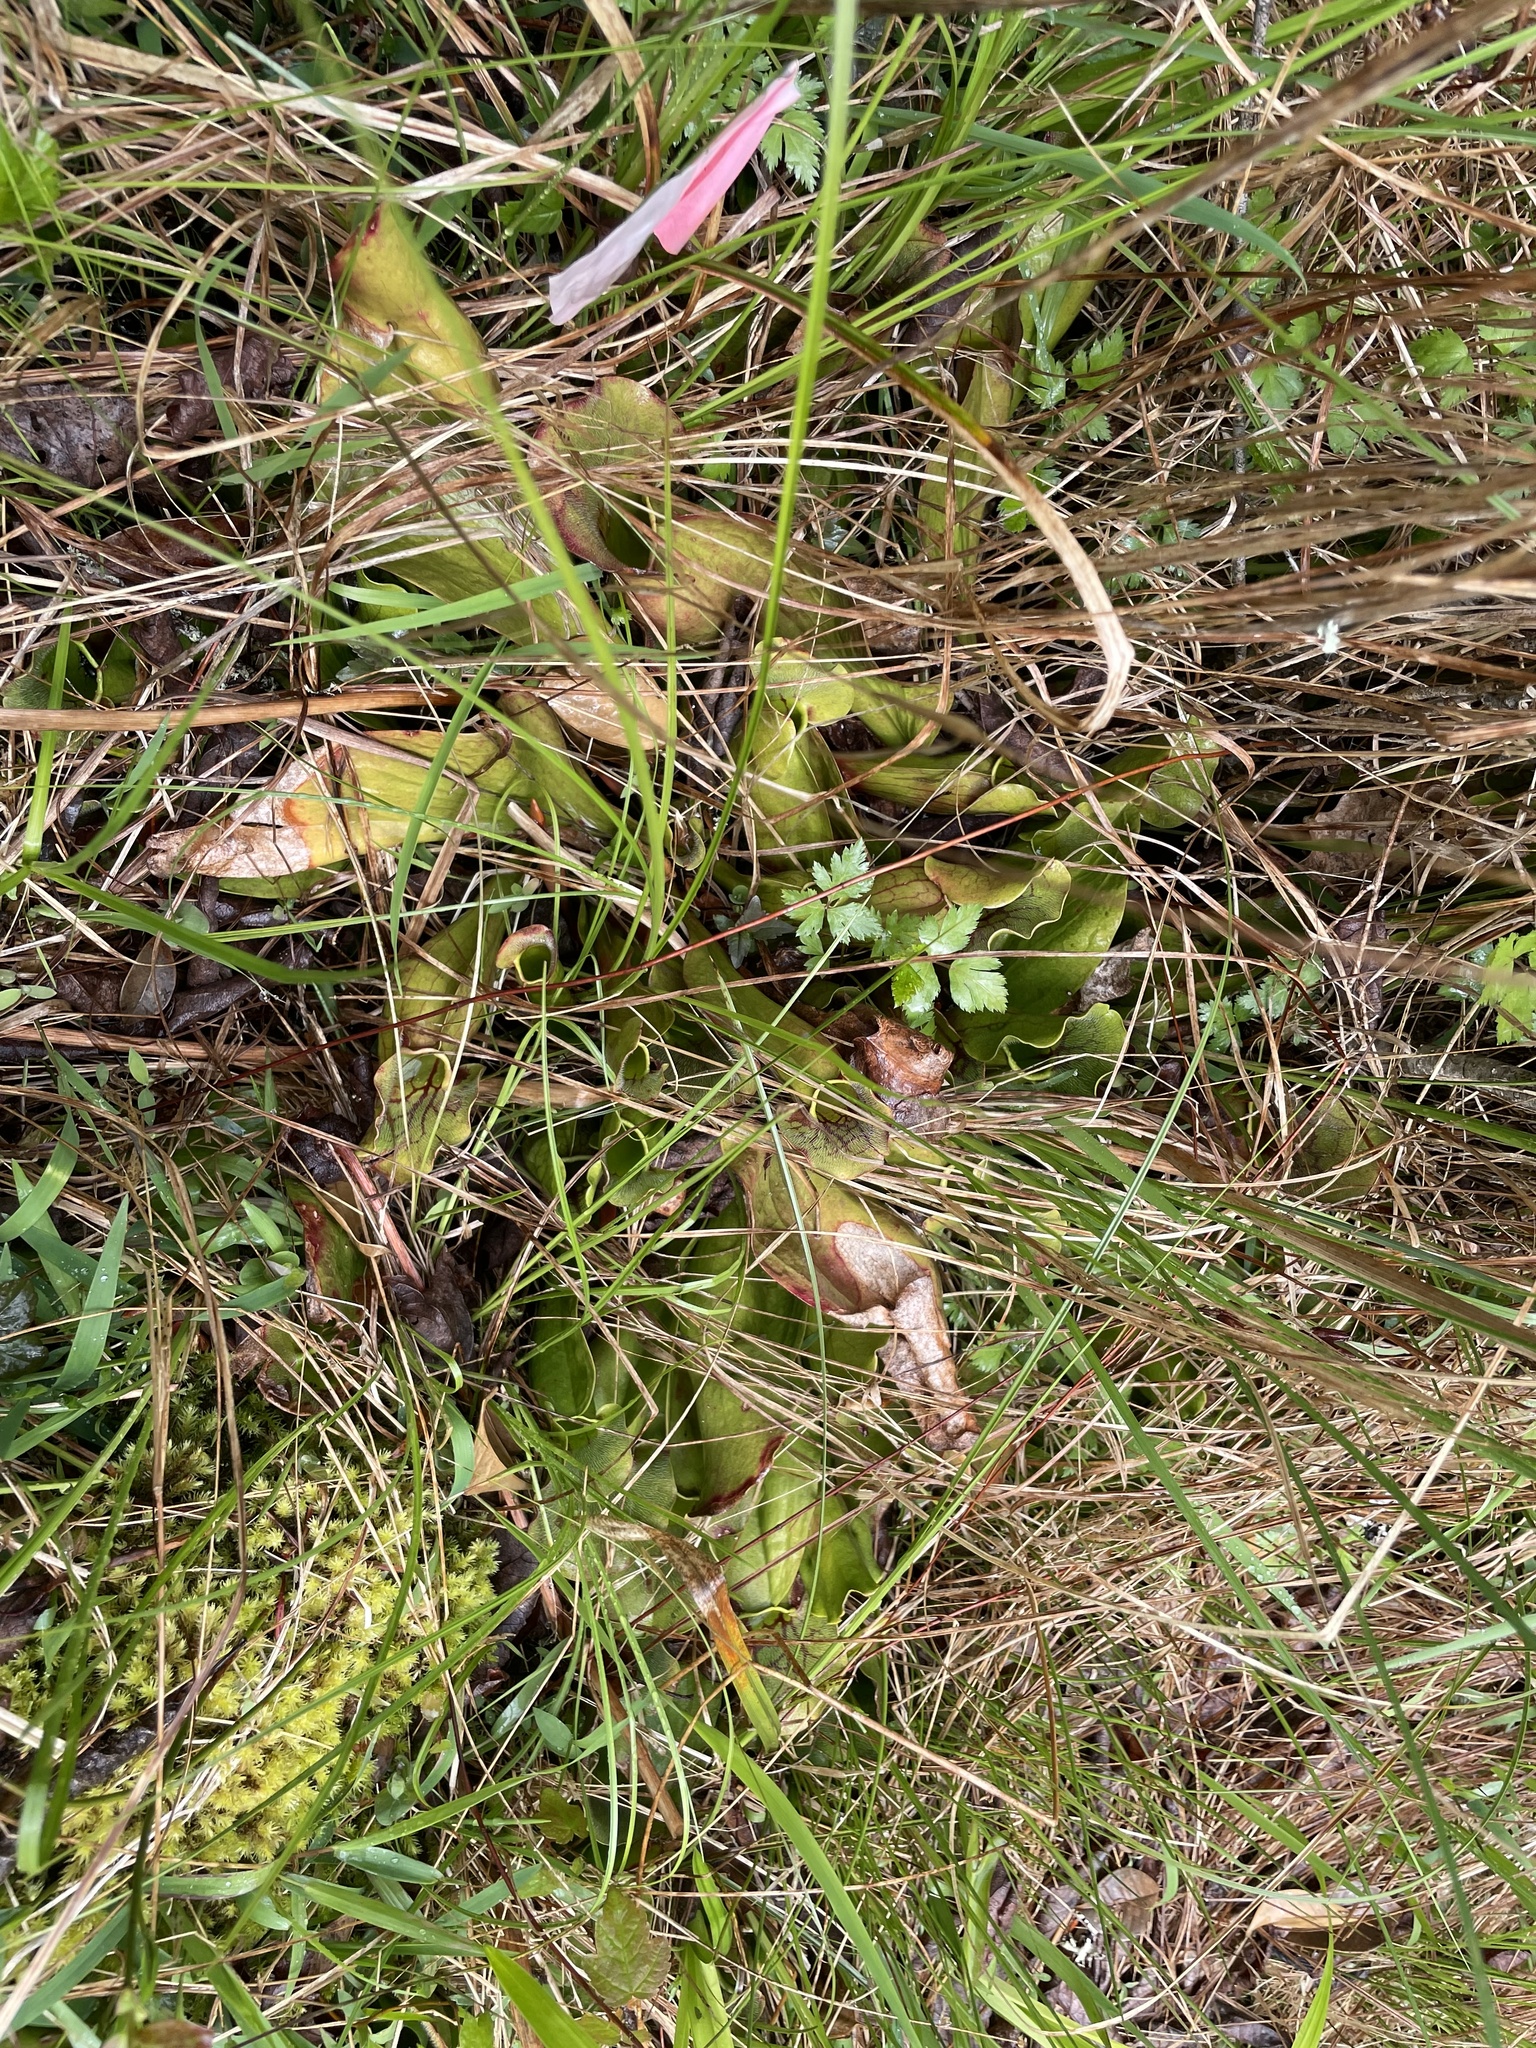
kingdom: Plantae
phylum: Tracheophyta
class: Magnoliopsida
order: Ericales
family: Sarraceniaceae
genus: Sarracenia
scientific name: Sarracenia purpurea
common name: Pitcherplant
